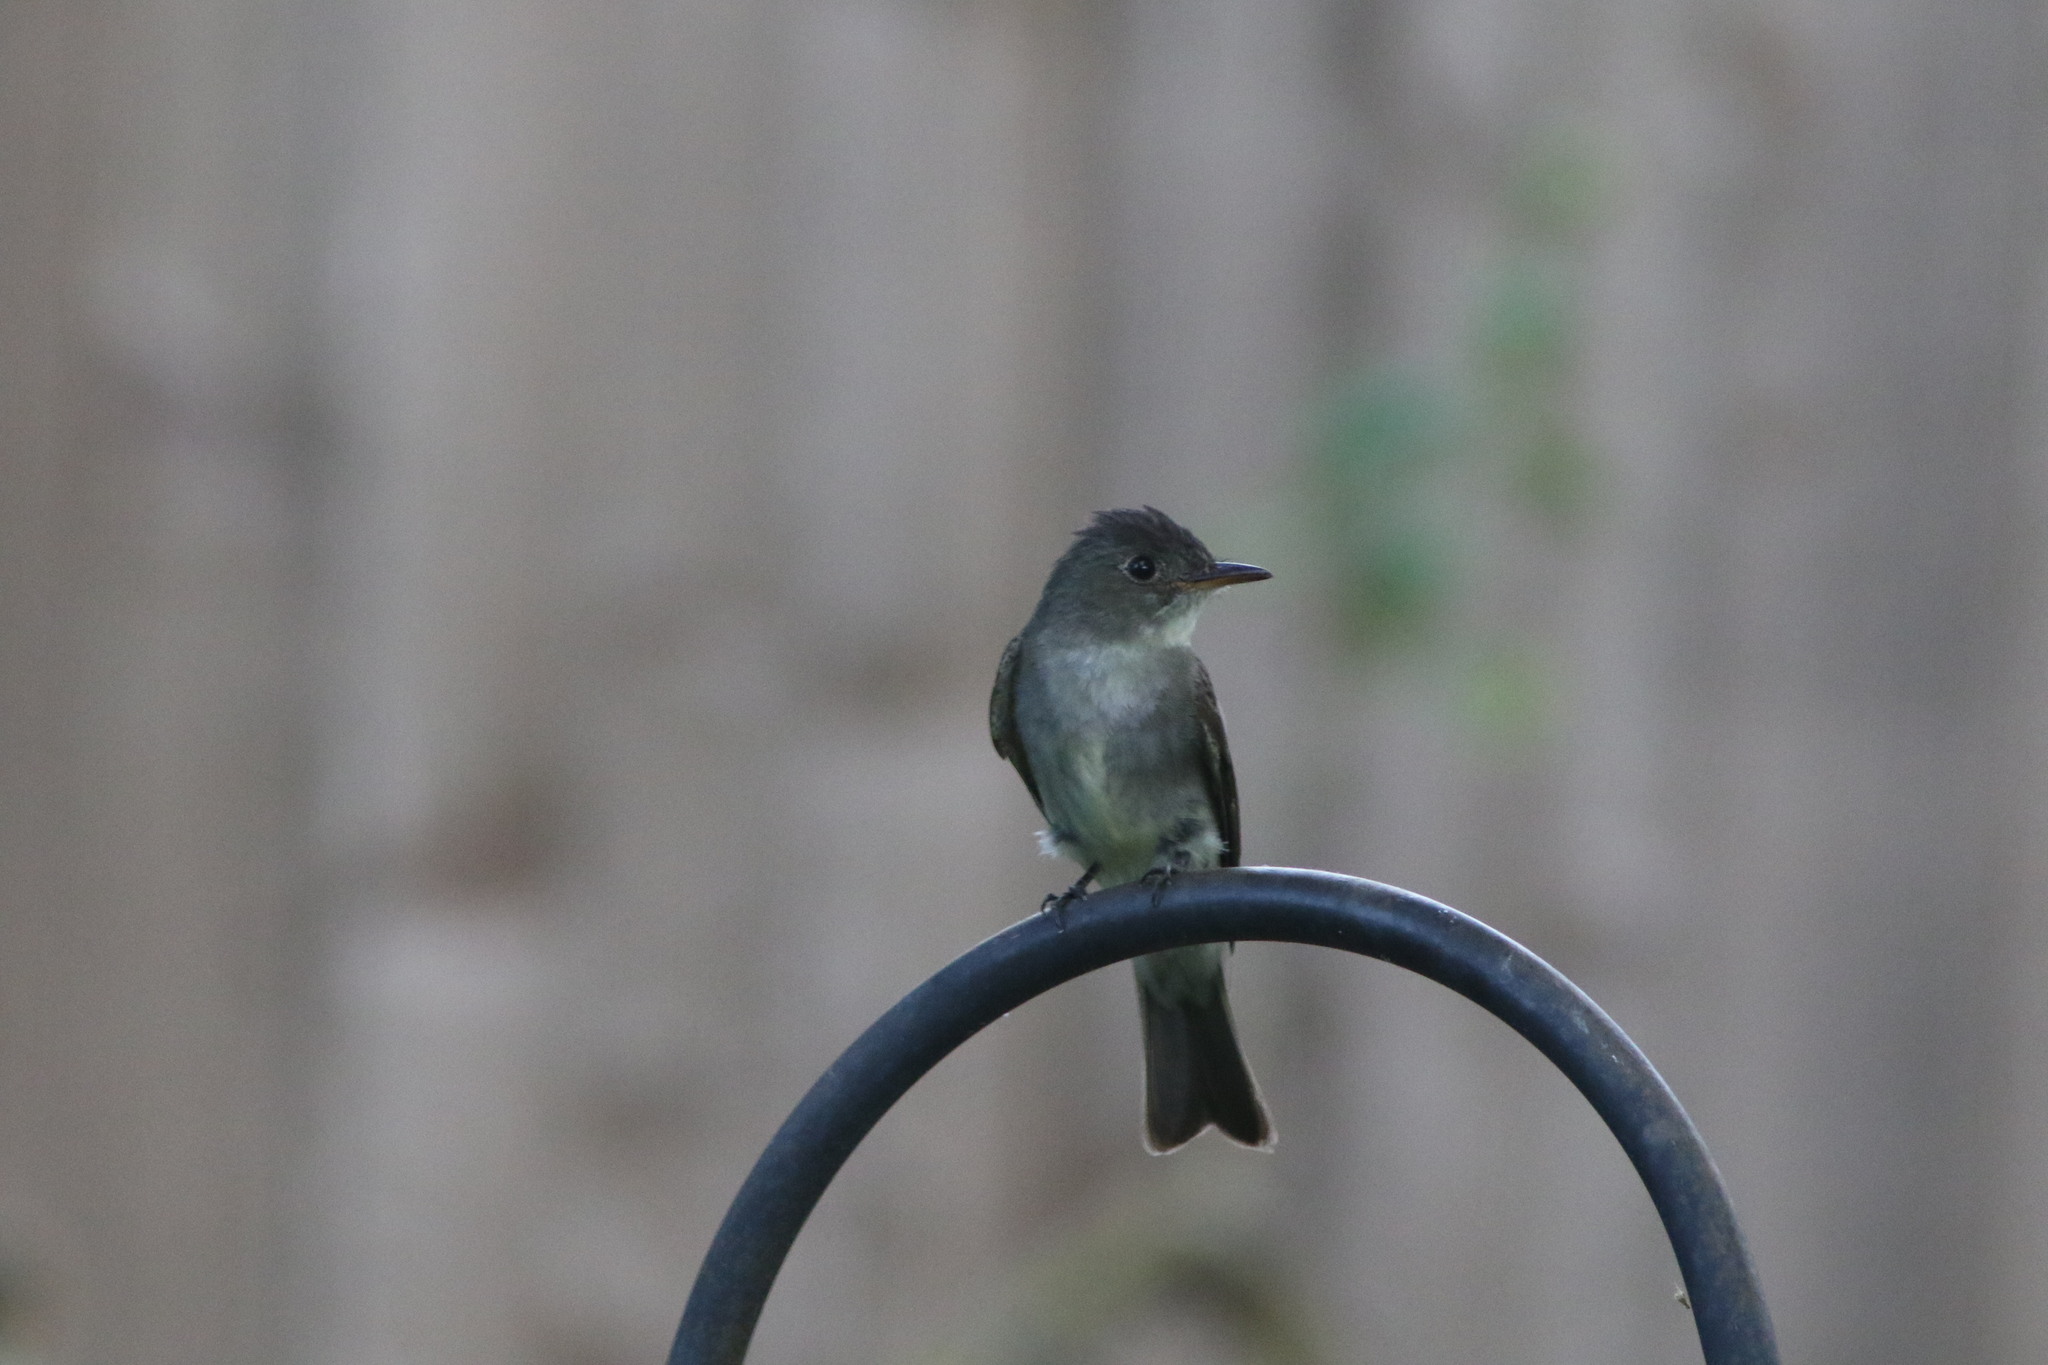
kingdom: Animalia
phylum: Chordata
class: Aves
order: Passeriformes
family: Tyrannidae
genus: Contopus
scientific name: Contopus virens
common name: Eastern wood-pewee
